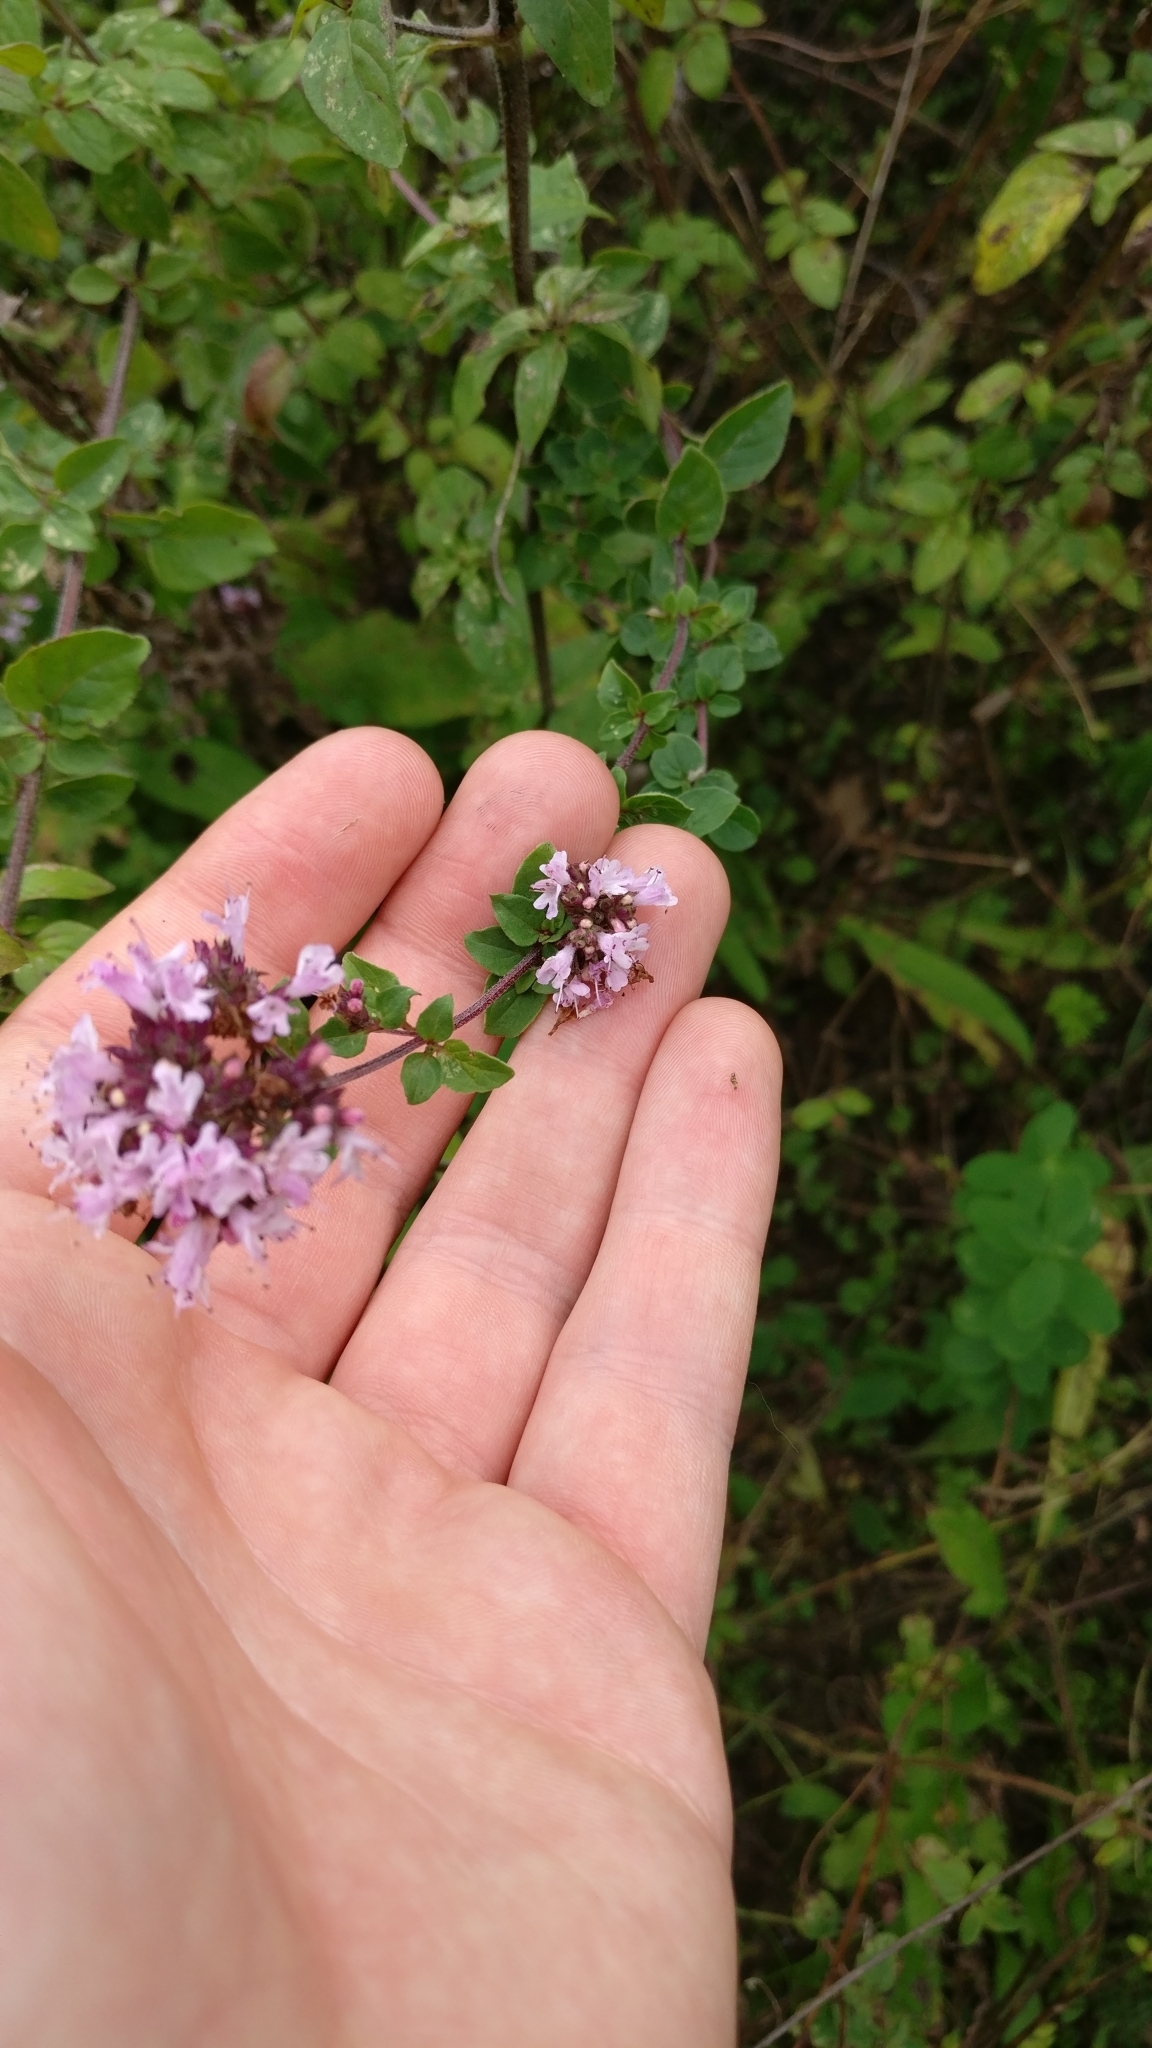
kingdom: Plantae
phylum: Tracheophyta
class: Magnoliopsida
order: Lamiales
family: Lamiaceae
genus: Origanum
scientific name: Origanum vulgare
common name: Wild marjoram
